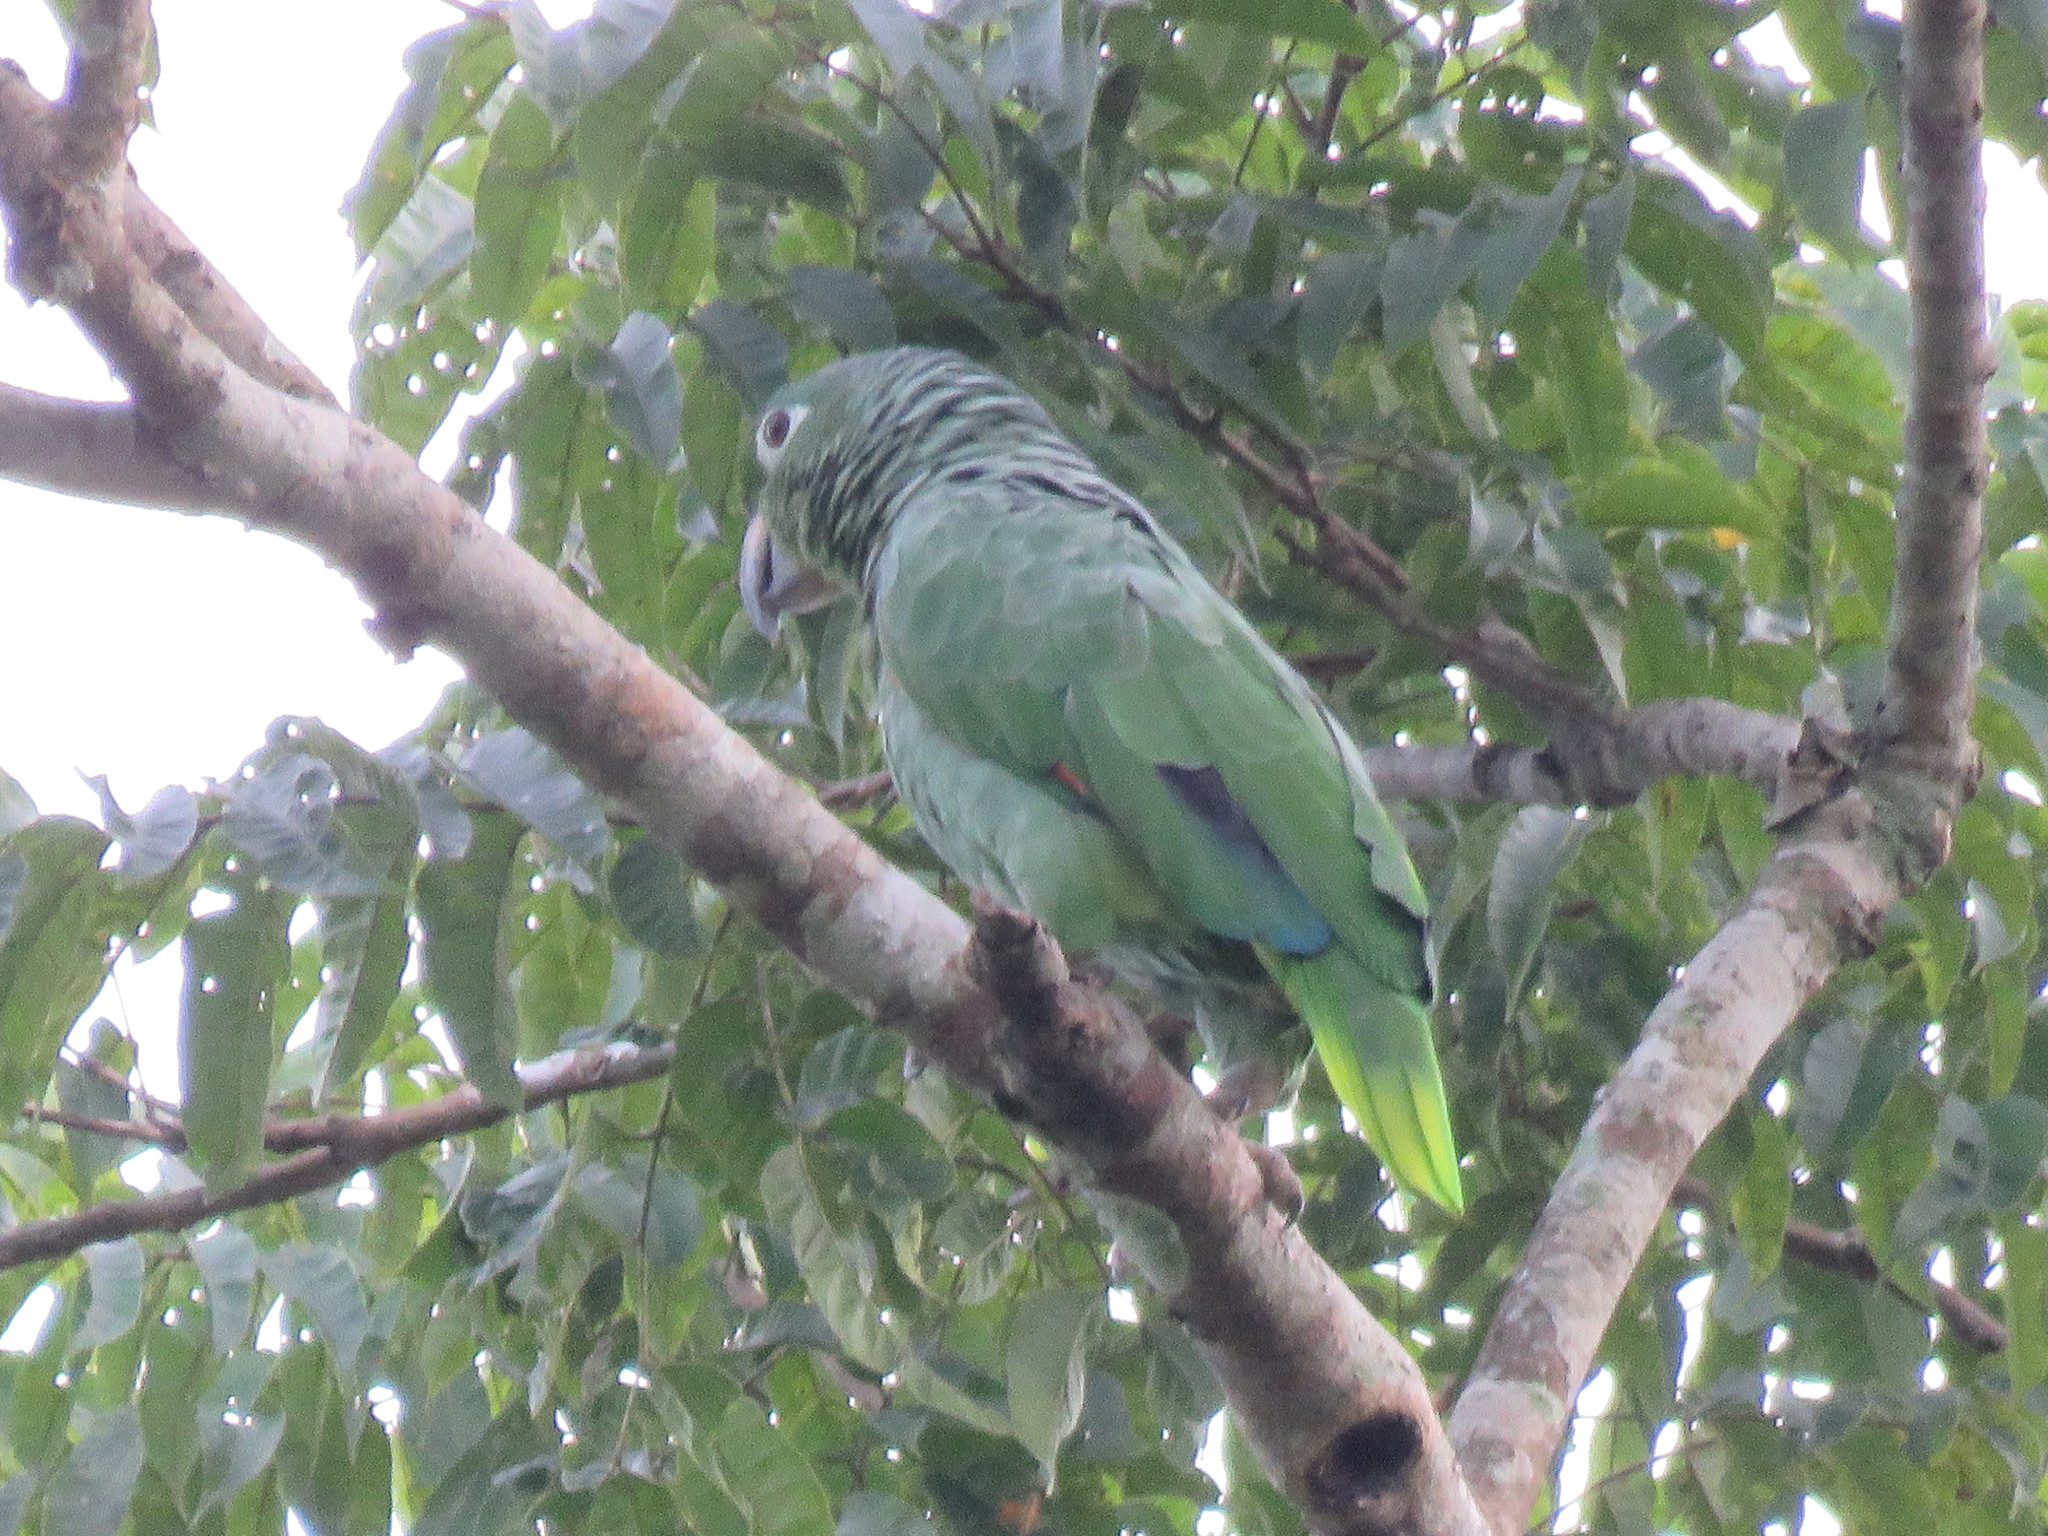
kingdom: Animalia
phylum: Chordata
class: Aves
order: Psittaciformes
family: Psittacidae
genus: Amazona
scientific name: Amazona farinosa
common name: Mealy parrot
